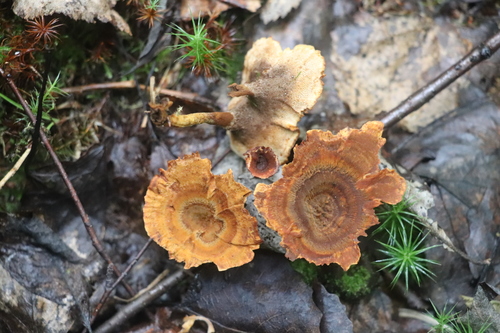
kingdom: Fungi
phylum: Basidiomycota
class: Agaricomycetes
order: Hymenochaetales
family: Hymenochaetaceae
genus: Coltricia
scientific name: Coltricia
